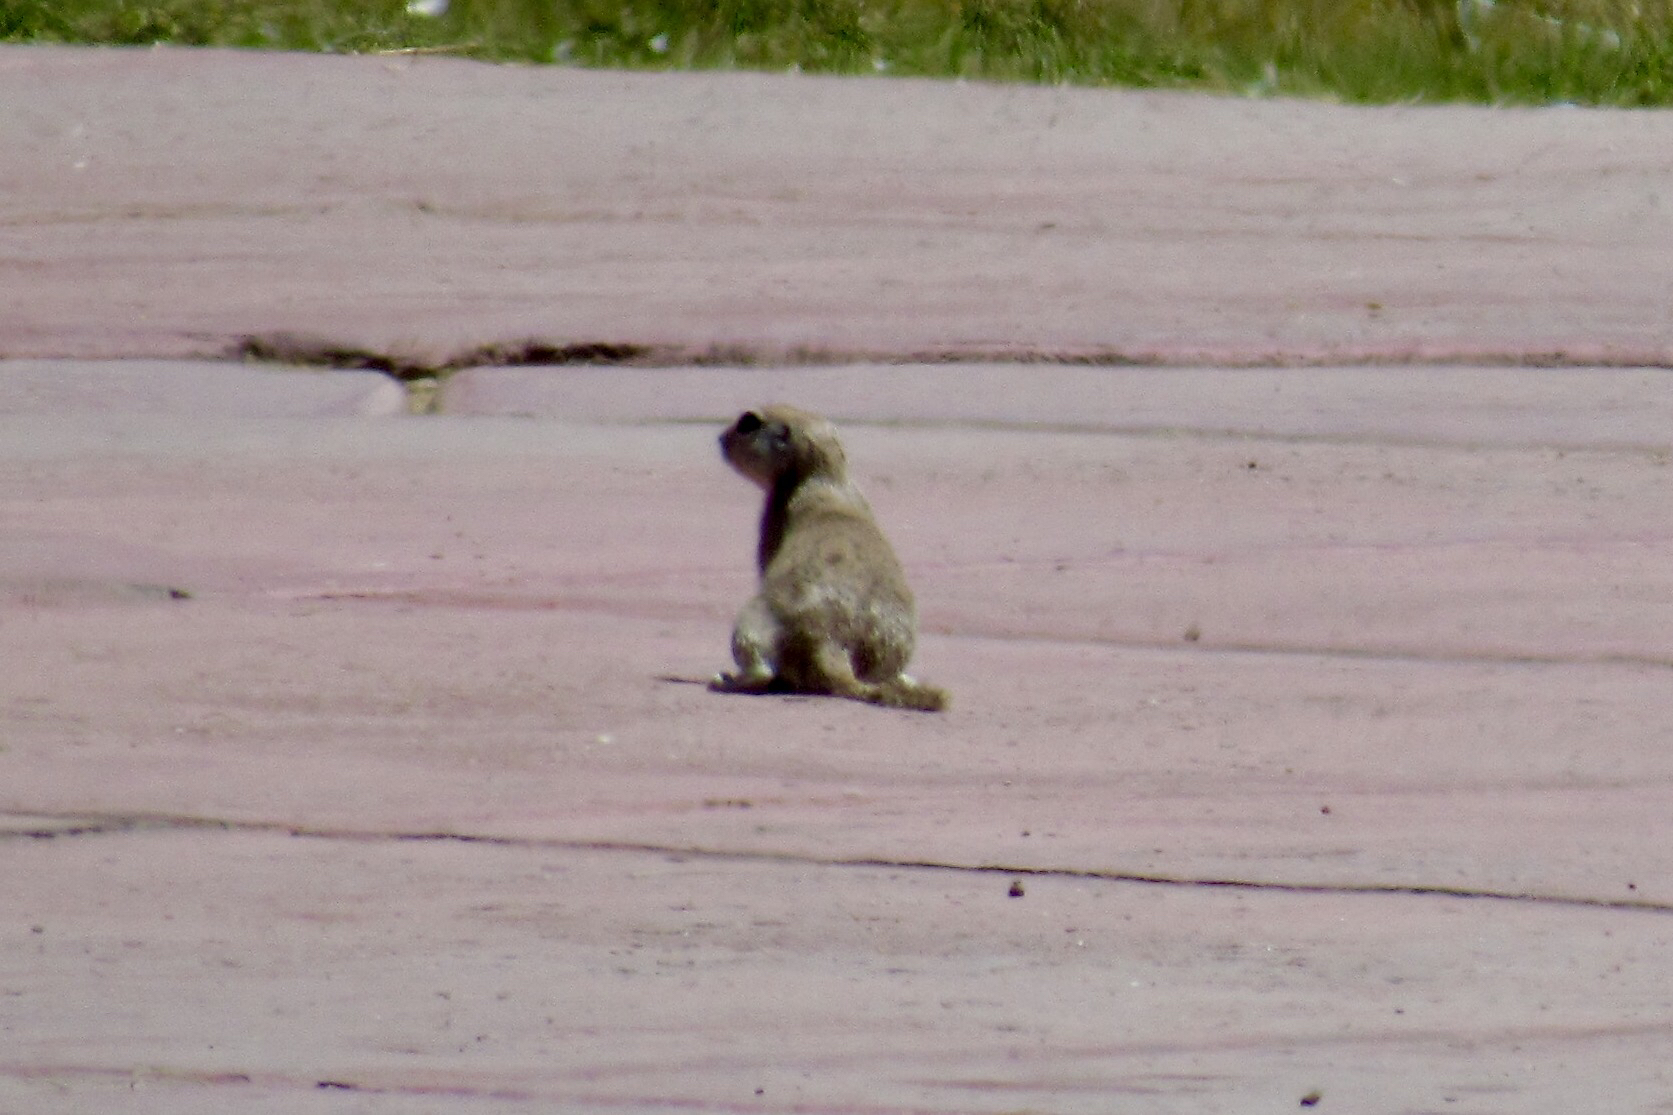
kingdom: Animalia
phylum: Chordata
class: Mammalia
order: Rodentia
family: Sciuridae
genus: Xerospermophilus
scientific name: Xerospermophilus tereticaudus
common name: Round-tailed ground squirrel
